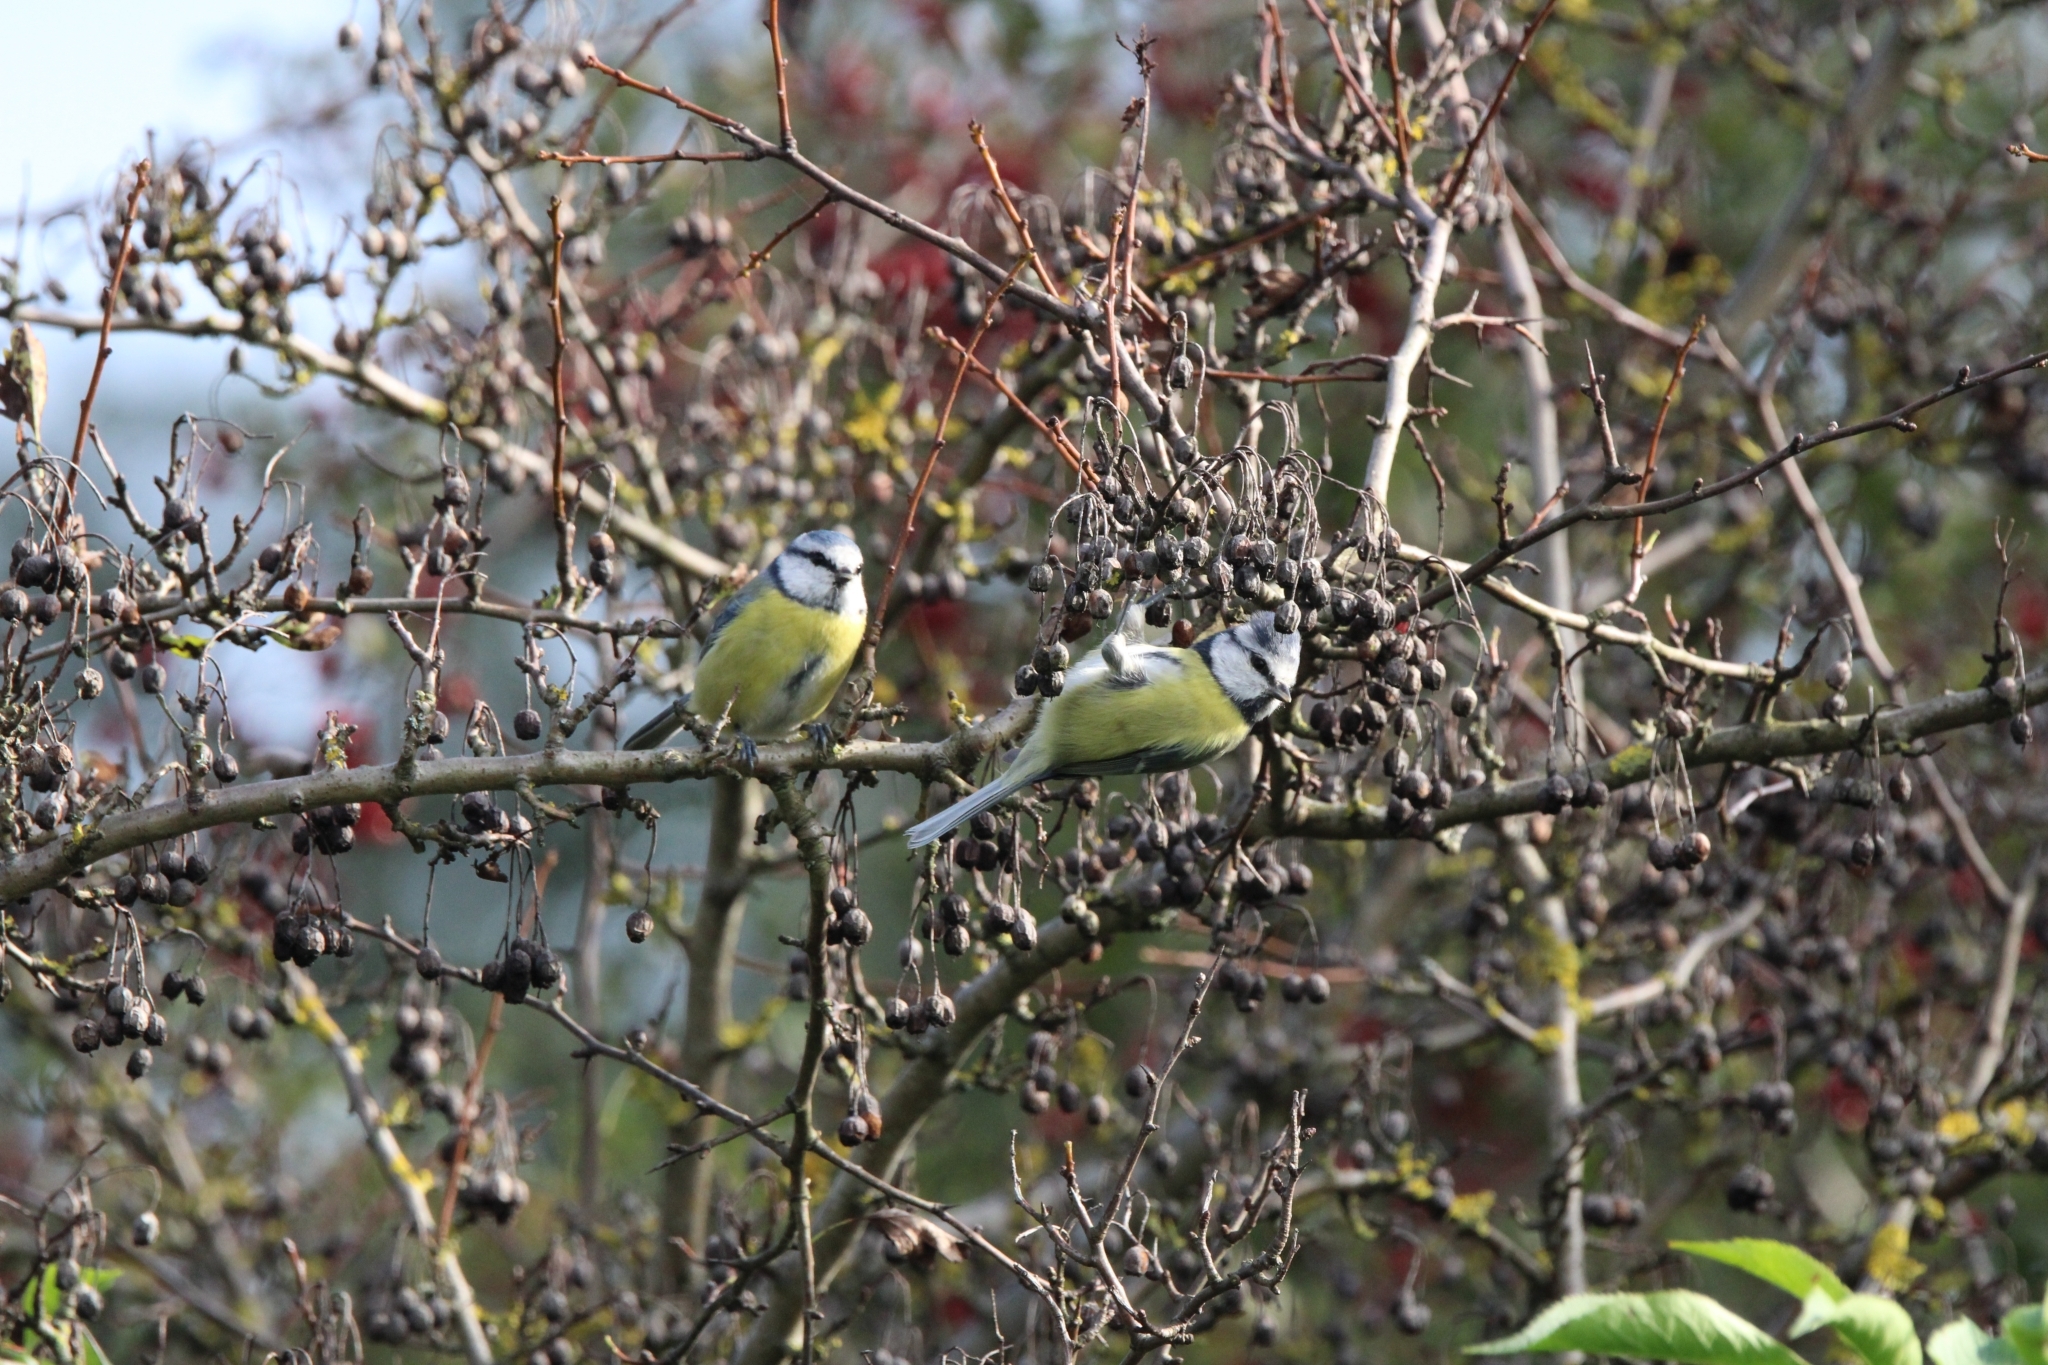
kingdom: Animalia
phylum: Chordata
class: Aves
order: Passeriformes
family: Paridae
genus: Cyanistes
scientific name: Cyanistes caeruleus
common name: Eurasian blue tit
